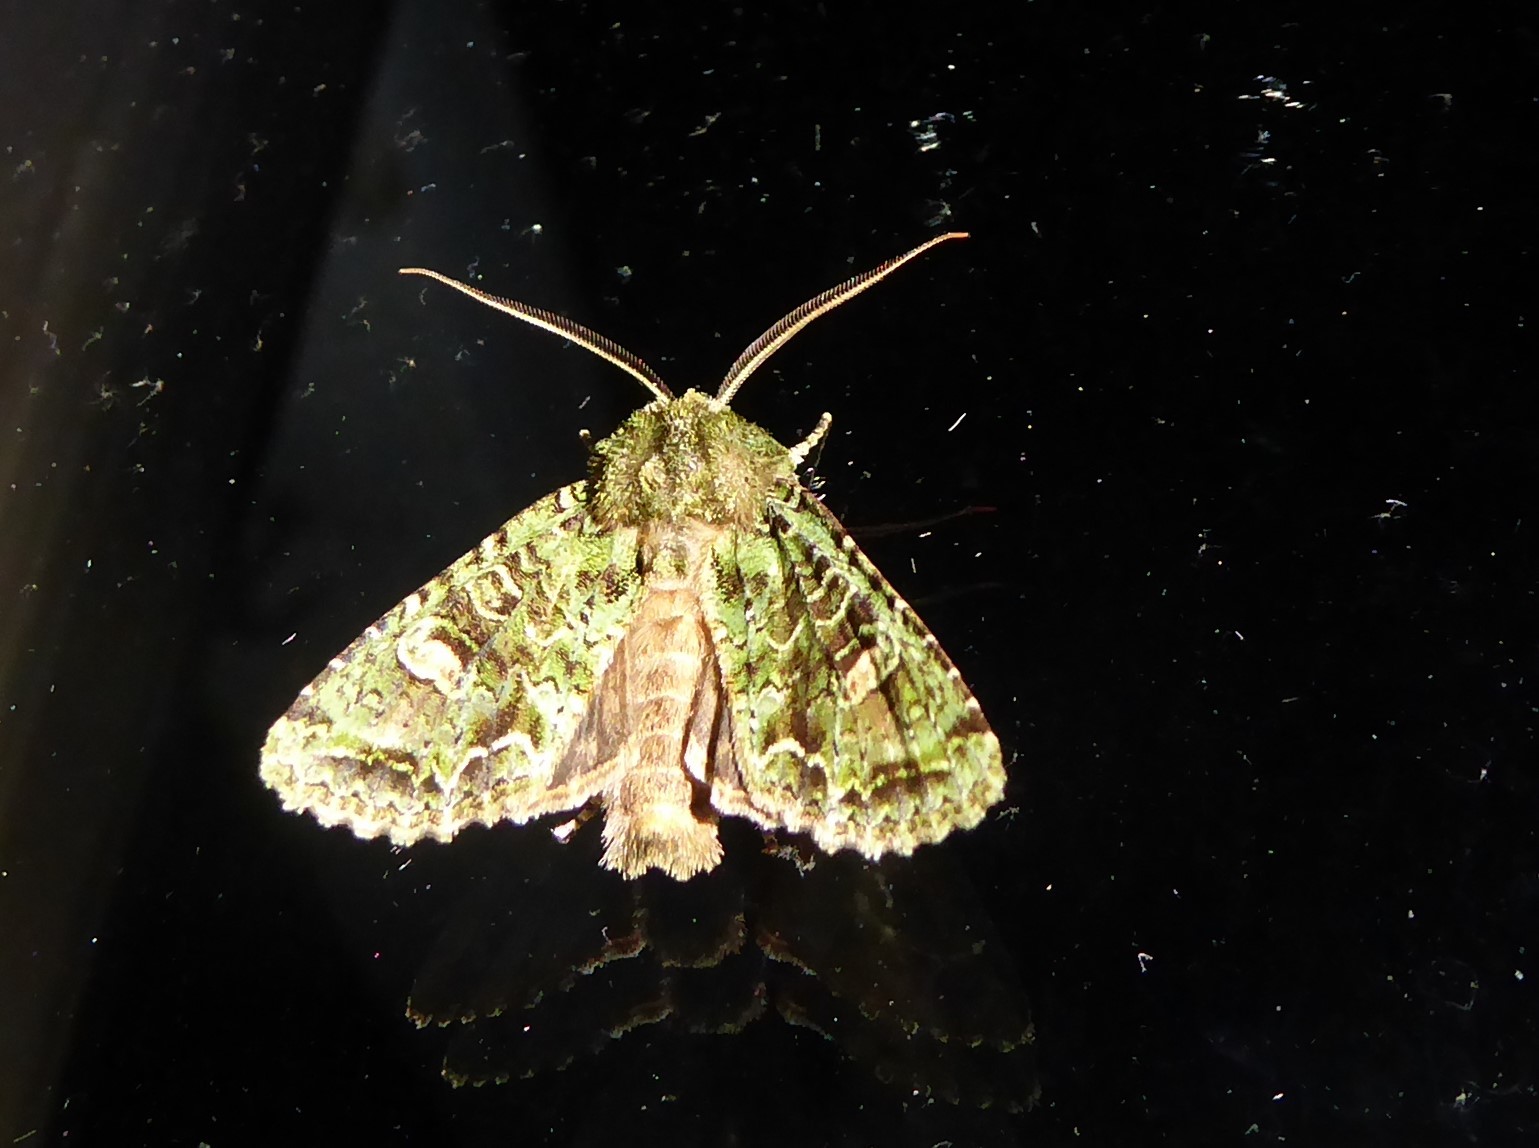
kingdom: Animalia
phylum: Arthropoda
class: Insecta
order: Lepidoptera
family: Noctuidae
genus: Ichneutica
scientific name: Ichneutica
